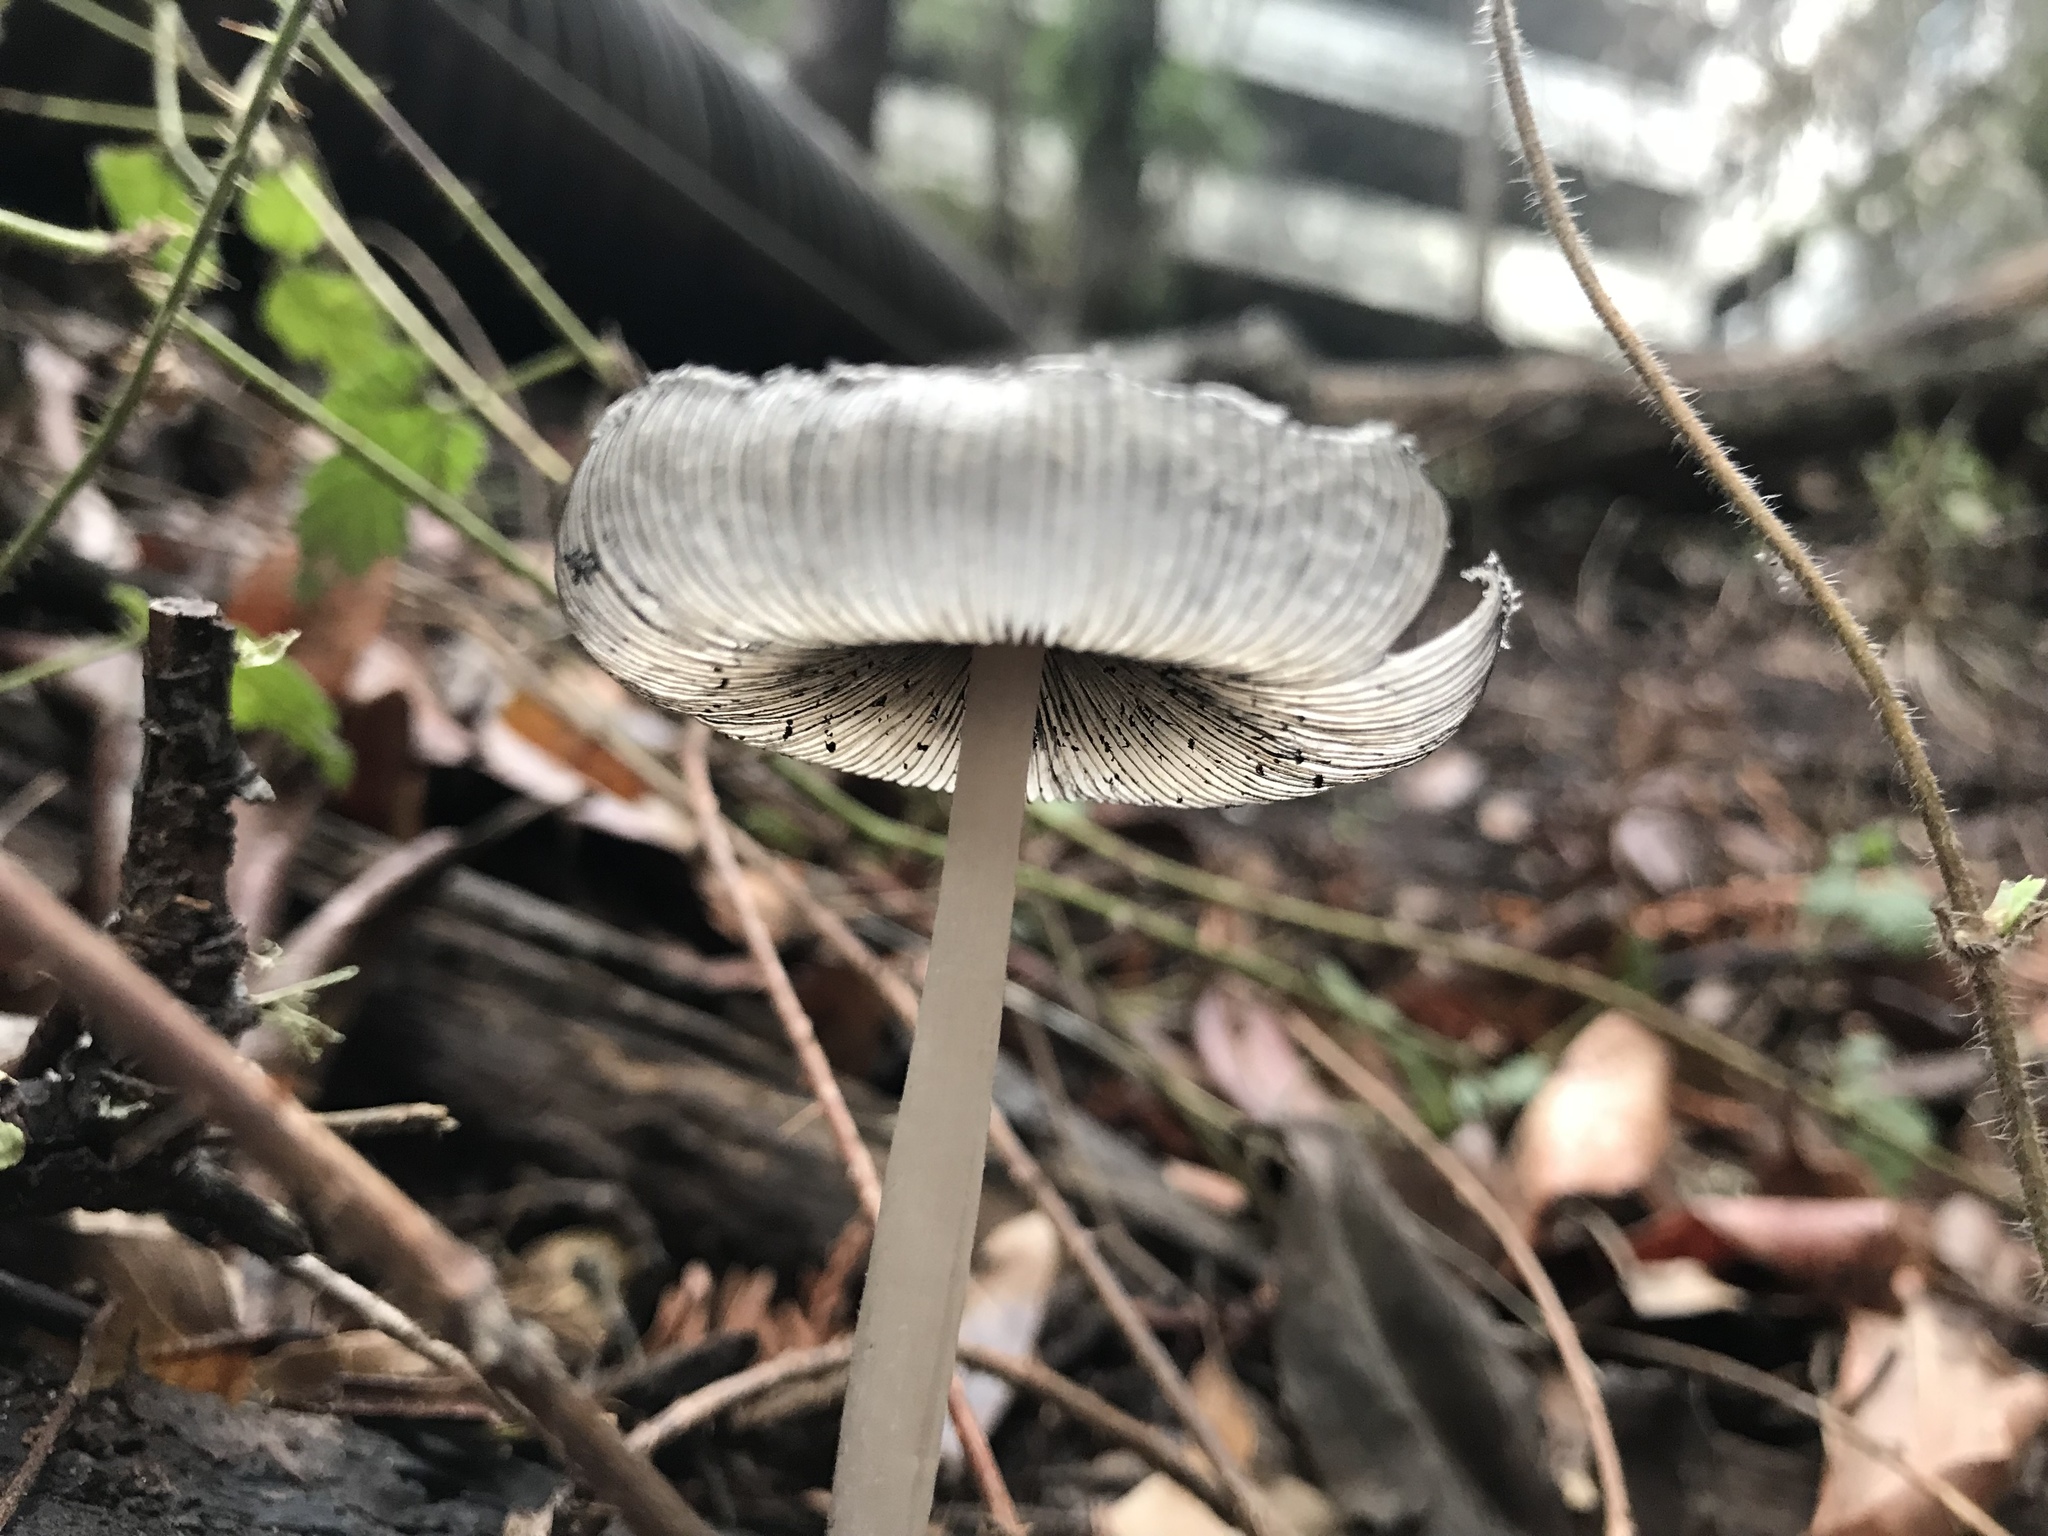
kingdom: Fungi
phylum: Basidiomycota
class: Agaricomycetes
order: Agaricales
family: Psathyrellaceae
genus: Coprinopsis
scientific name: Coprinopsis lagopus
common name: Hare'sfoot inkcap
